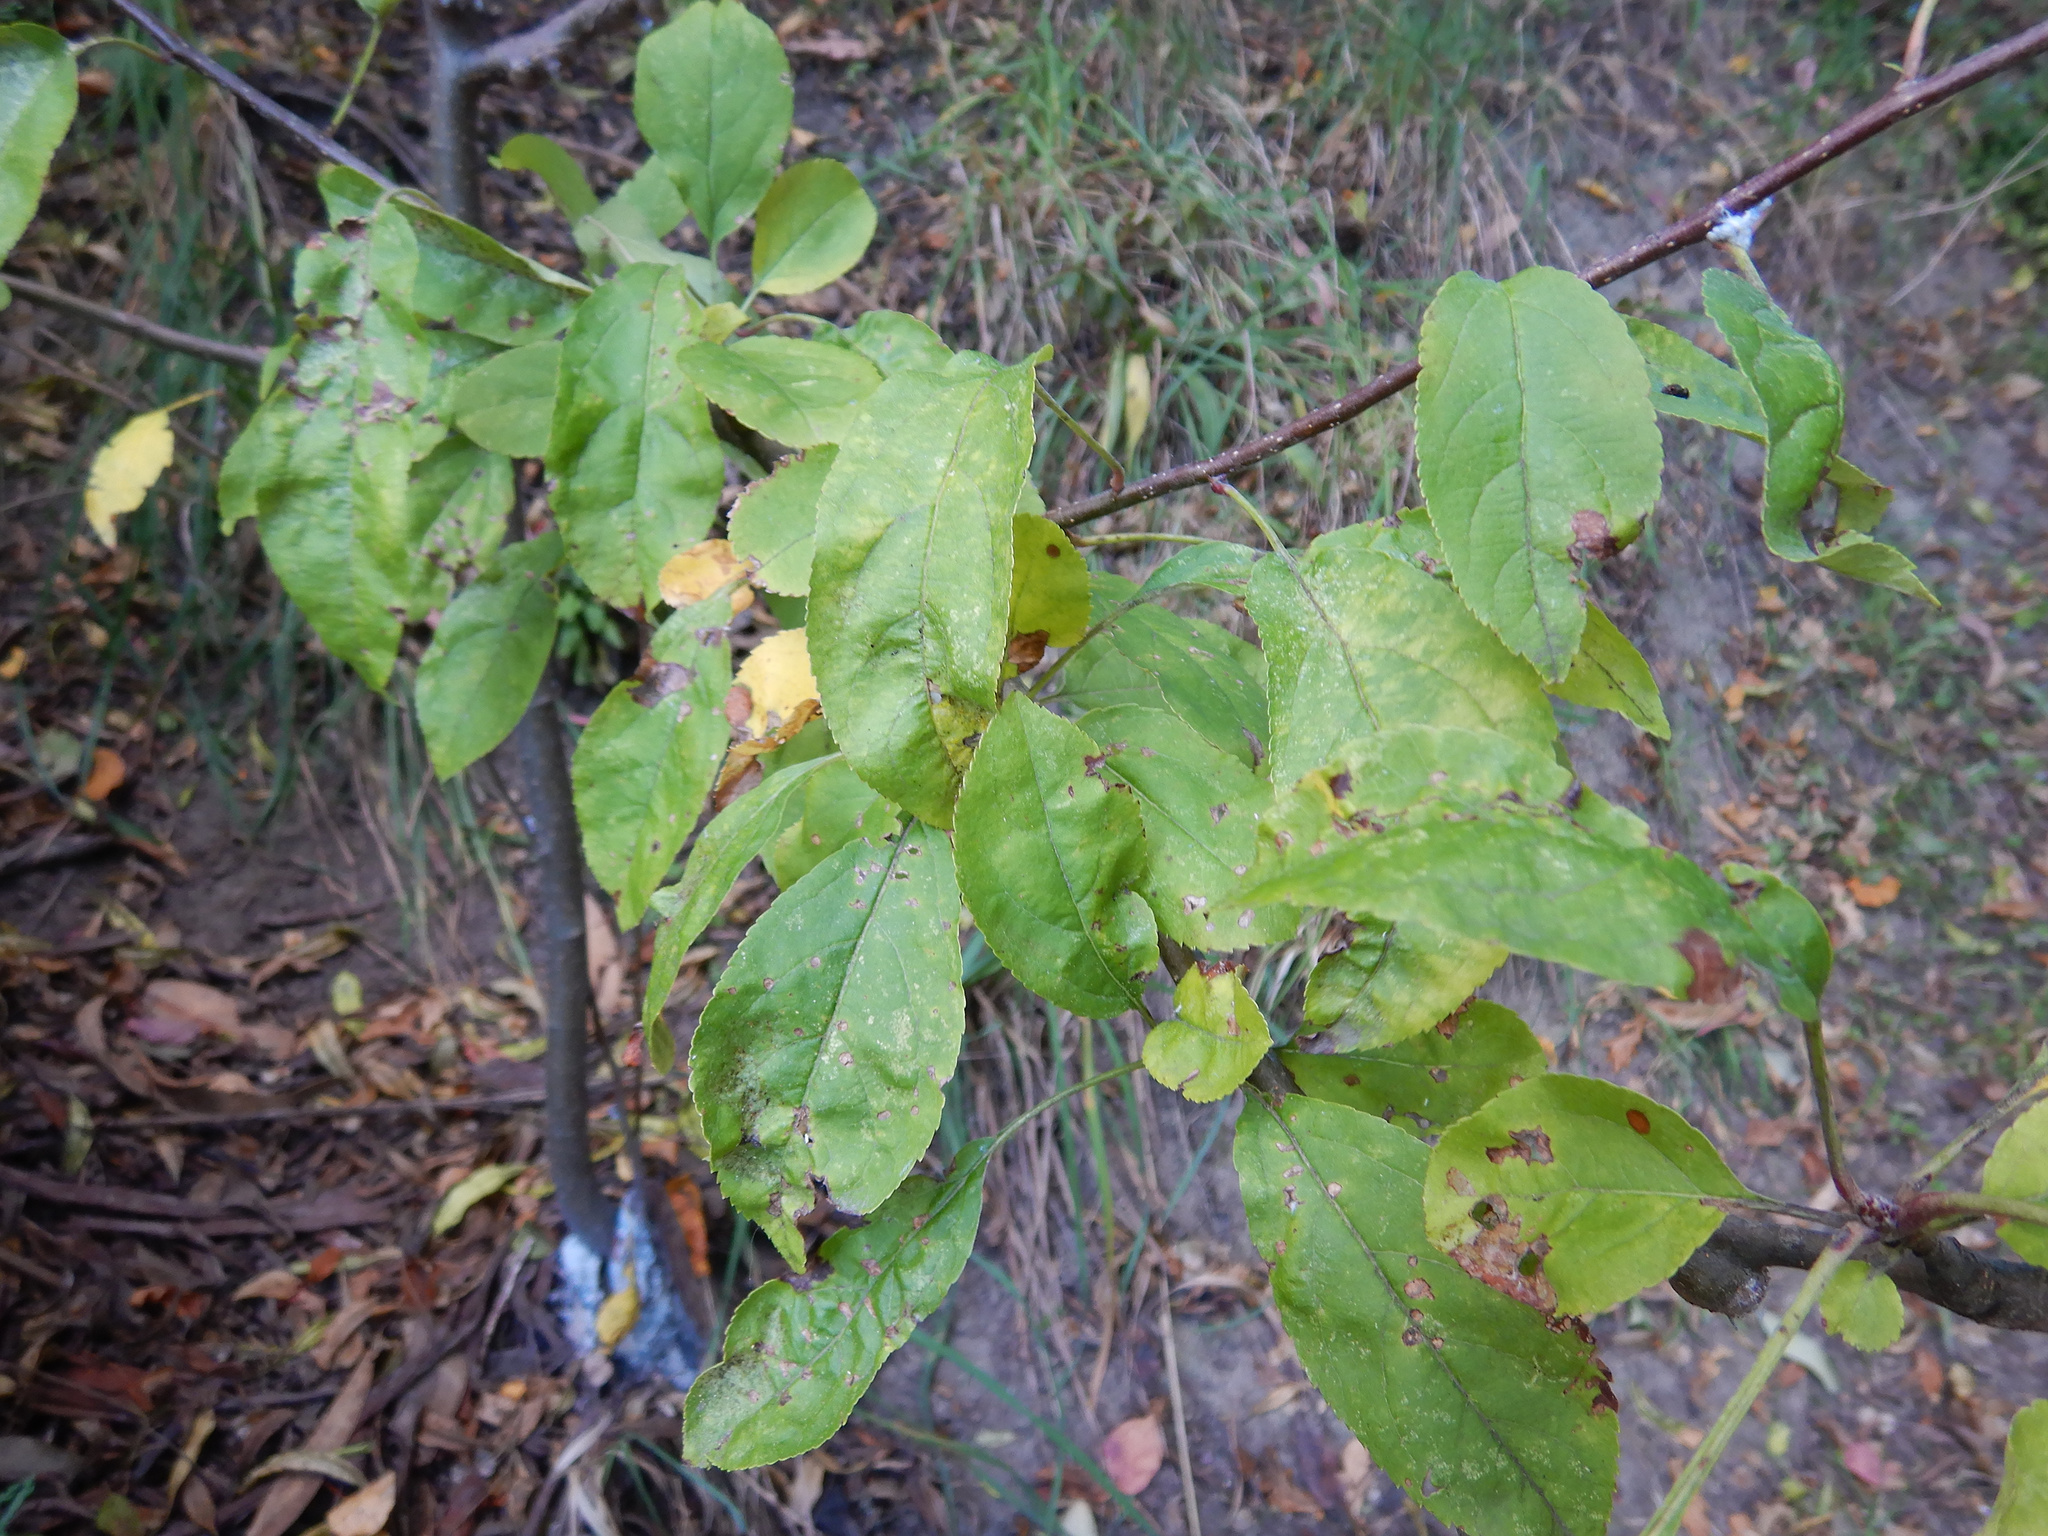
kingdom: Plantae
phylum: Tracheophyta
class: Magnoliopsida
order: Rosales
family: Rosaceae
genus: Malus
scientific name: Malus domestica
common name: Apple
